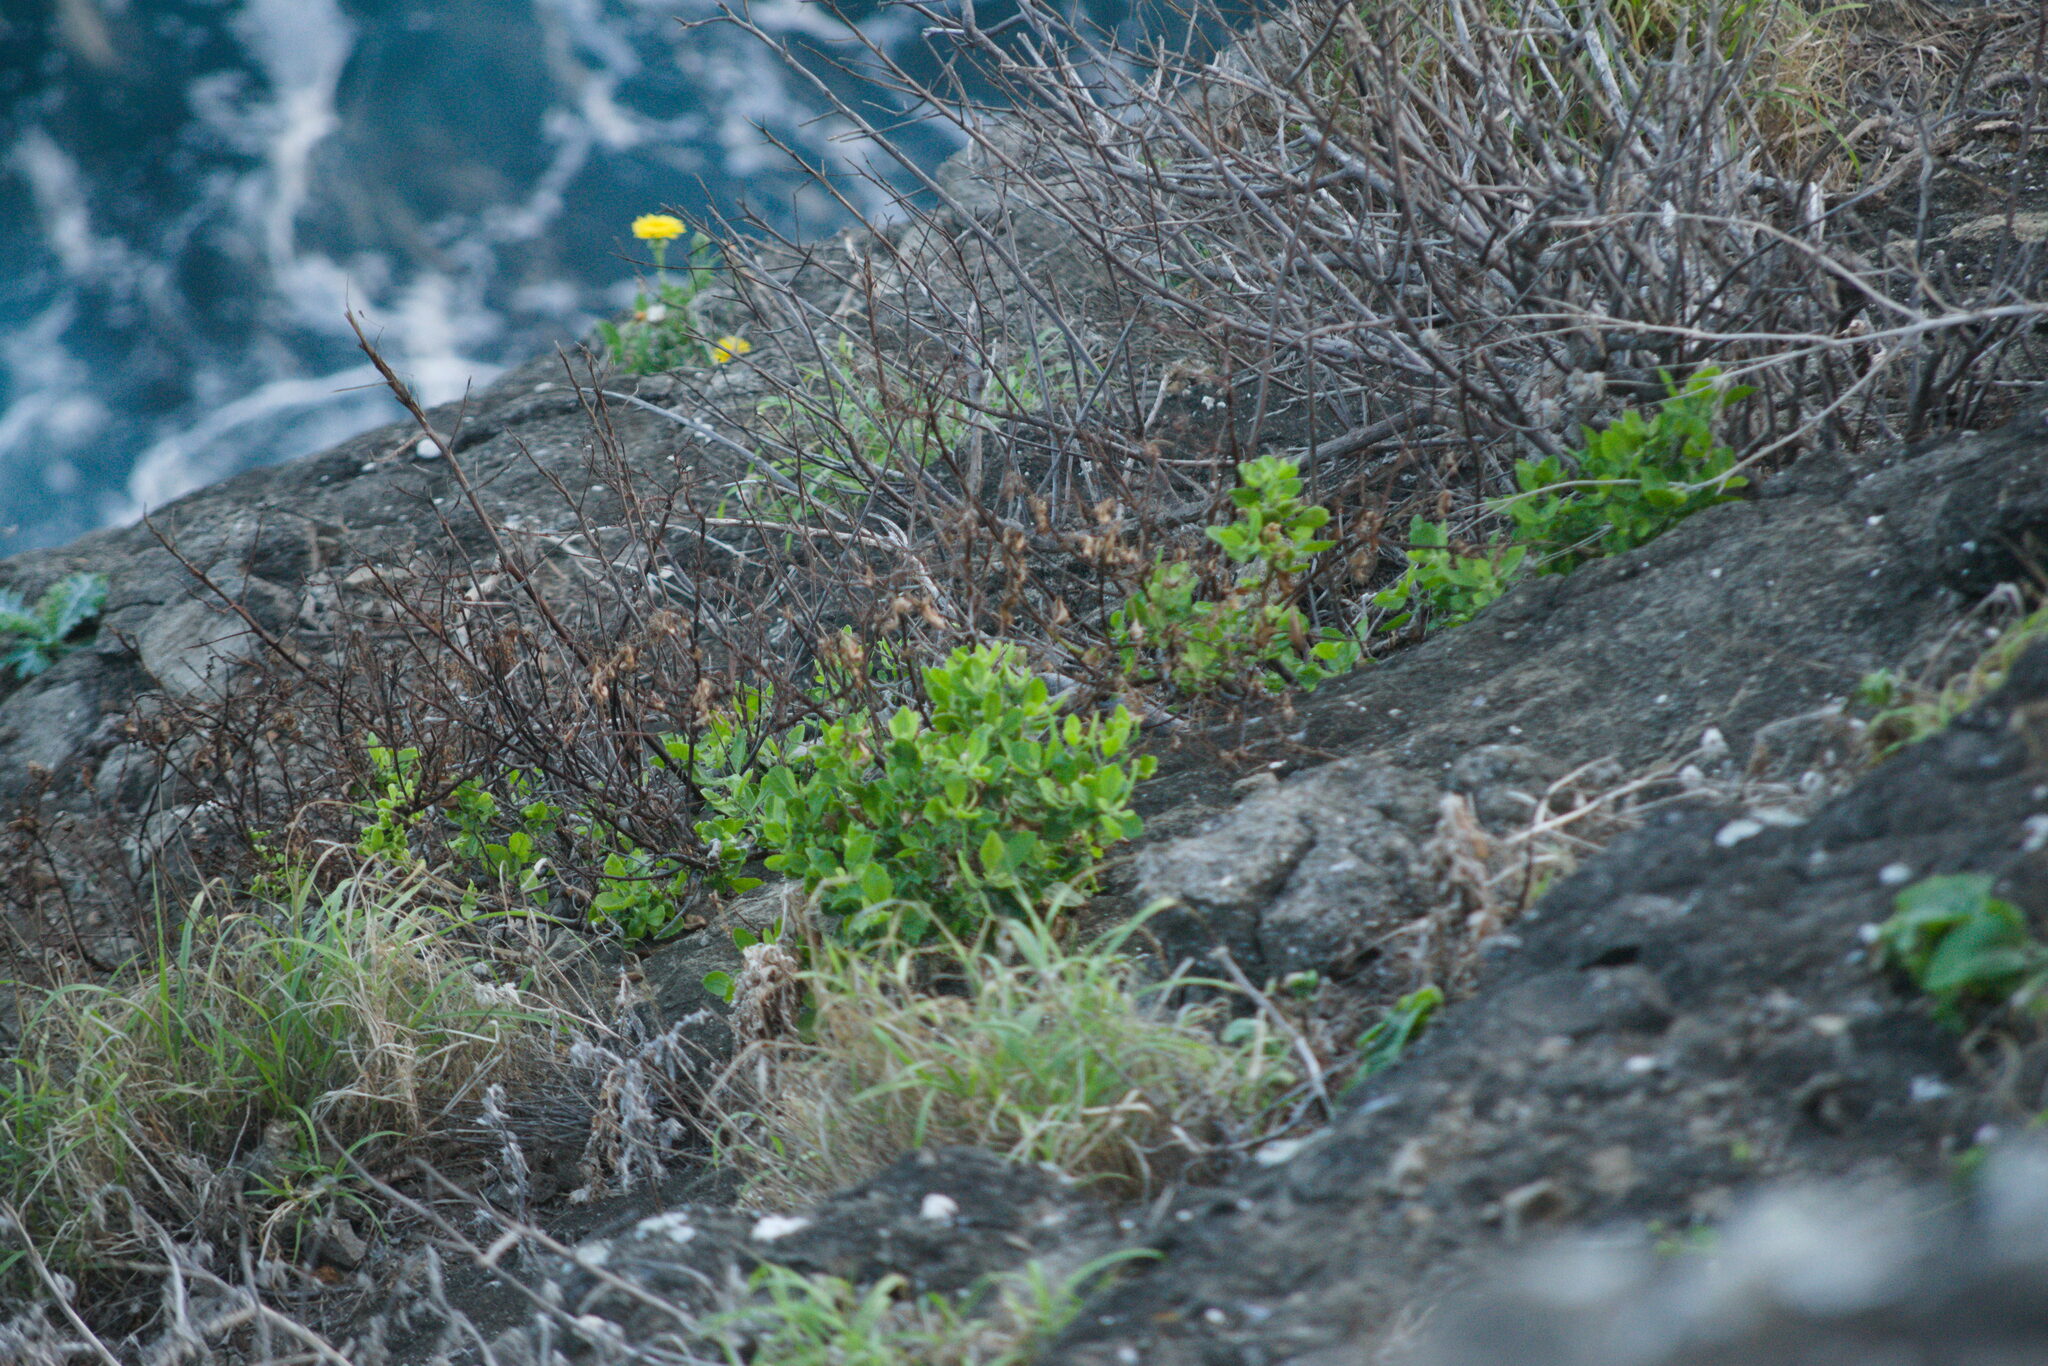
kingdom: Plantae
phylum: Tracheophyta
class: Magnoliopsida
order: Asterales
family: Asteraceae
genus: Pluchea
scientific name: Pluchea indica
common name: Indian fleabane
